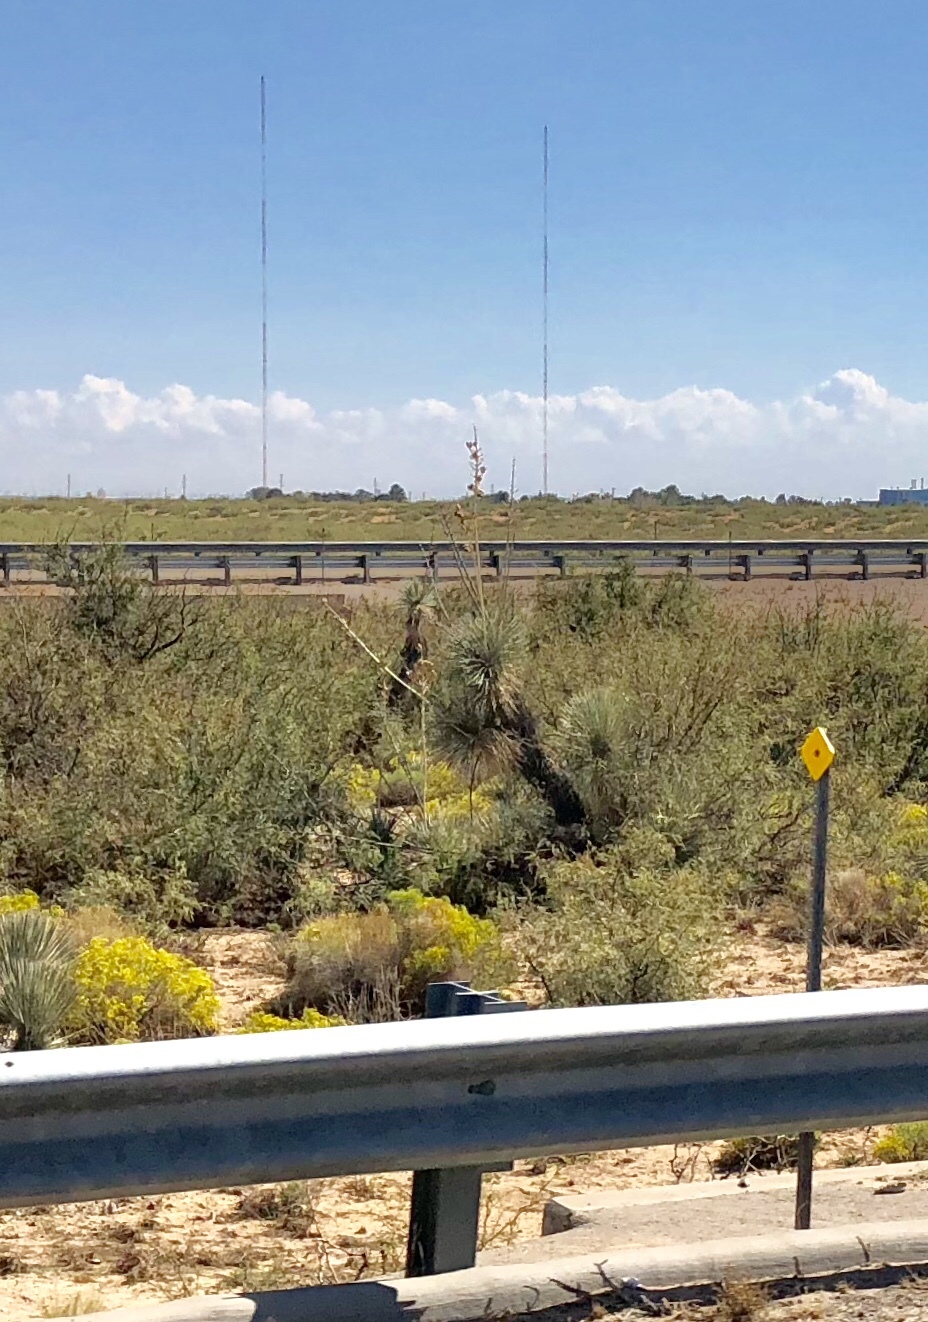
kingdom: Plantae
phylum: Tracheophyta
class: Liliopsida
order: Asparagales
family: Asparagaceae
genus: Yucca
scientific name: Yucca elata
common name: Palmella
